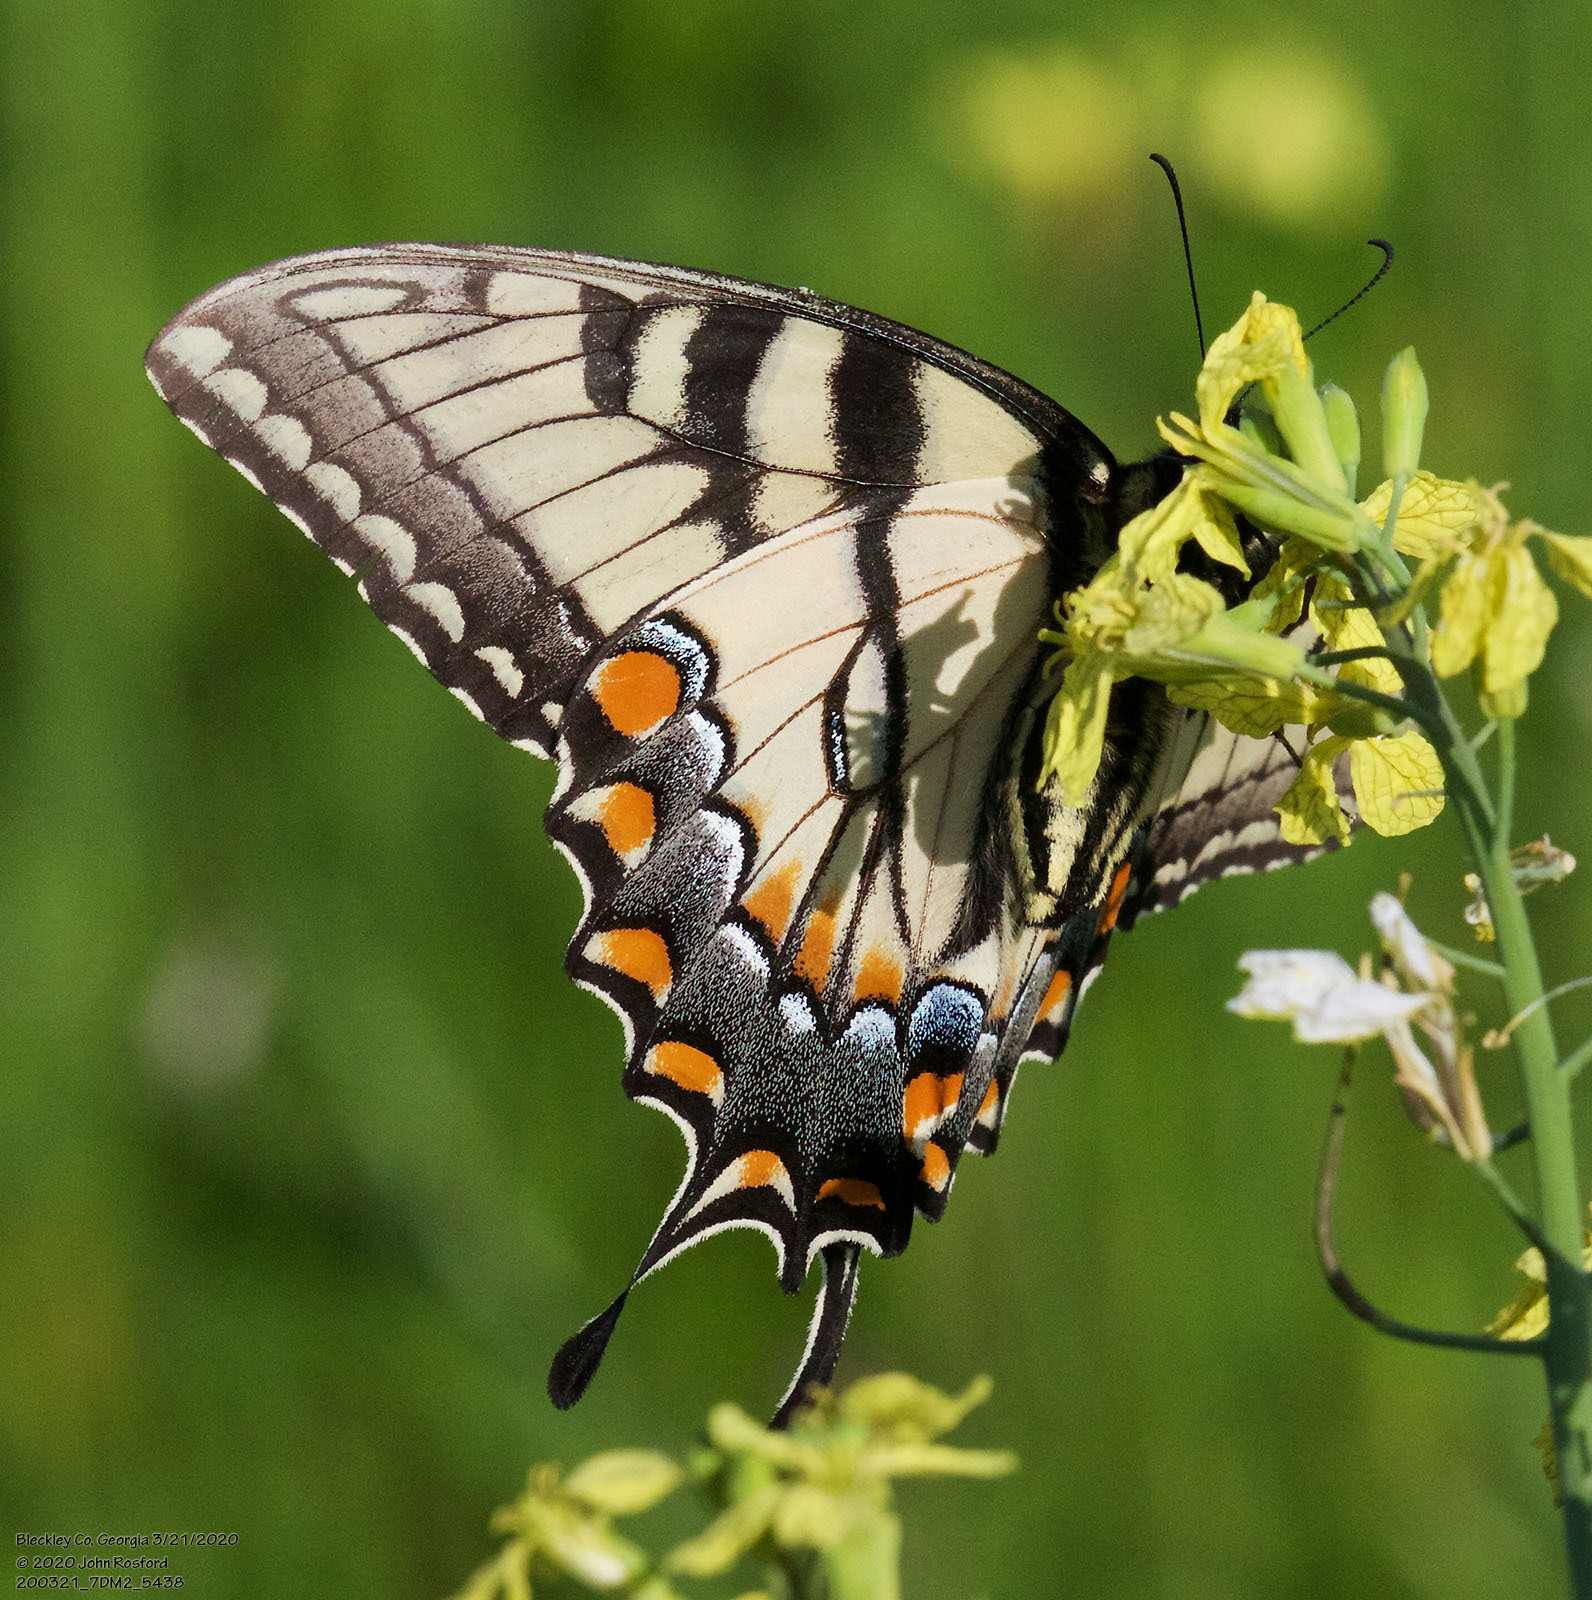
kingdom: Animalia
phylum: Arthropoda
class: Insecta
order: Lepidoptera
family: Papilionidae
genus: Papilio
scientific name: Papilio glaucus
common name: Tiger swallowtail
